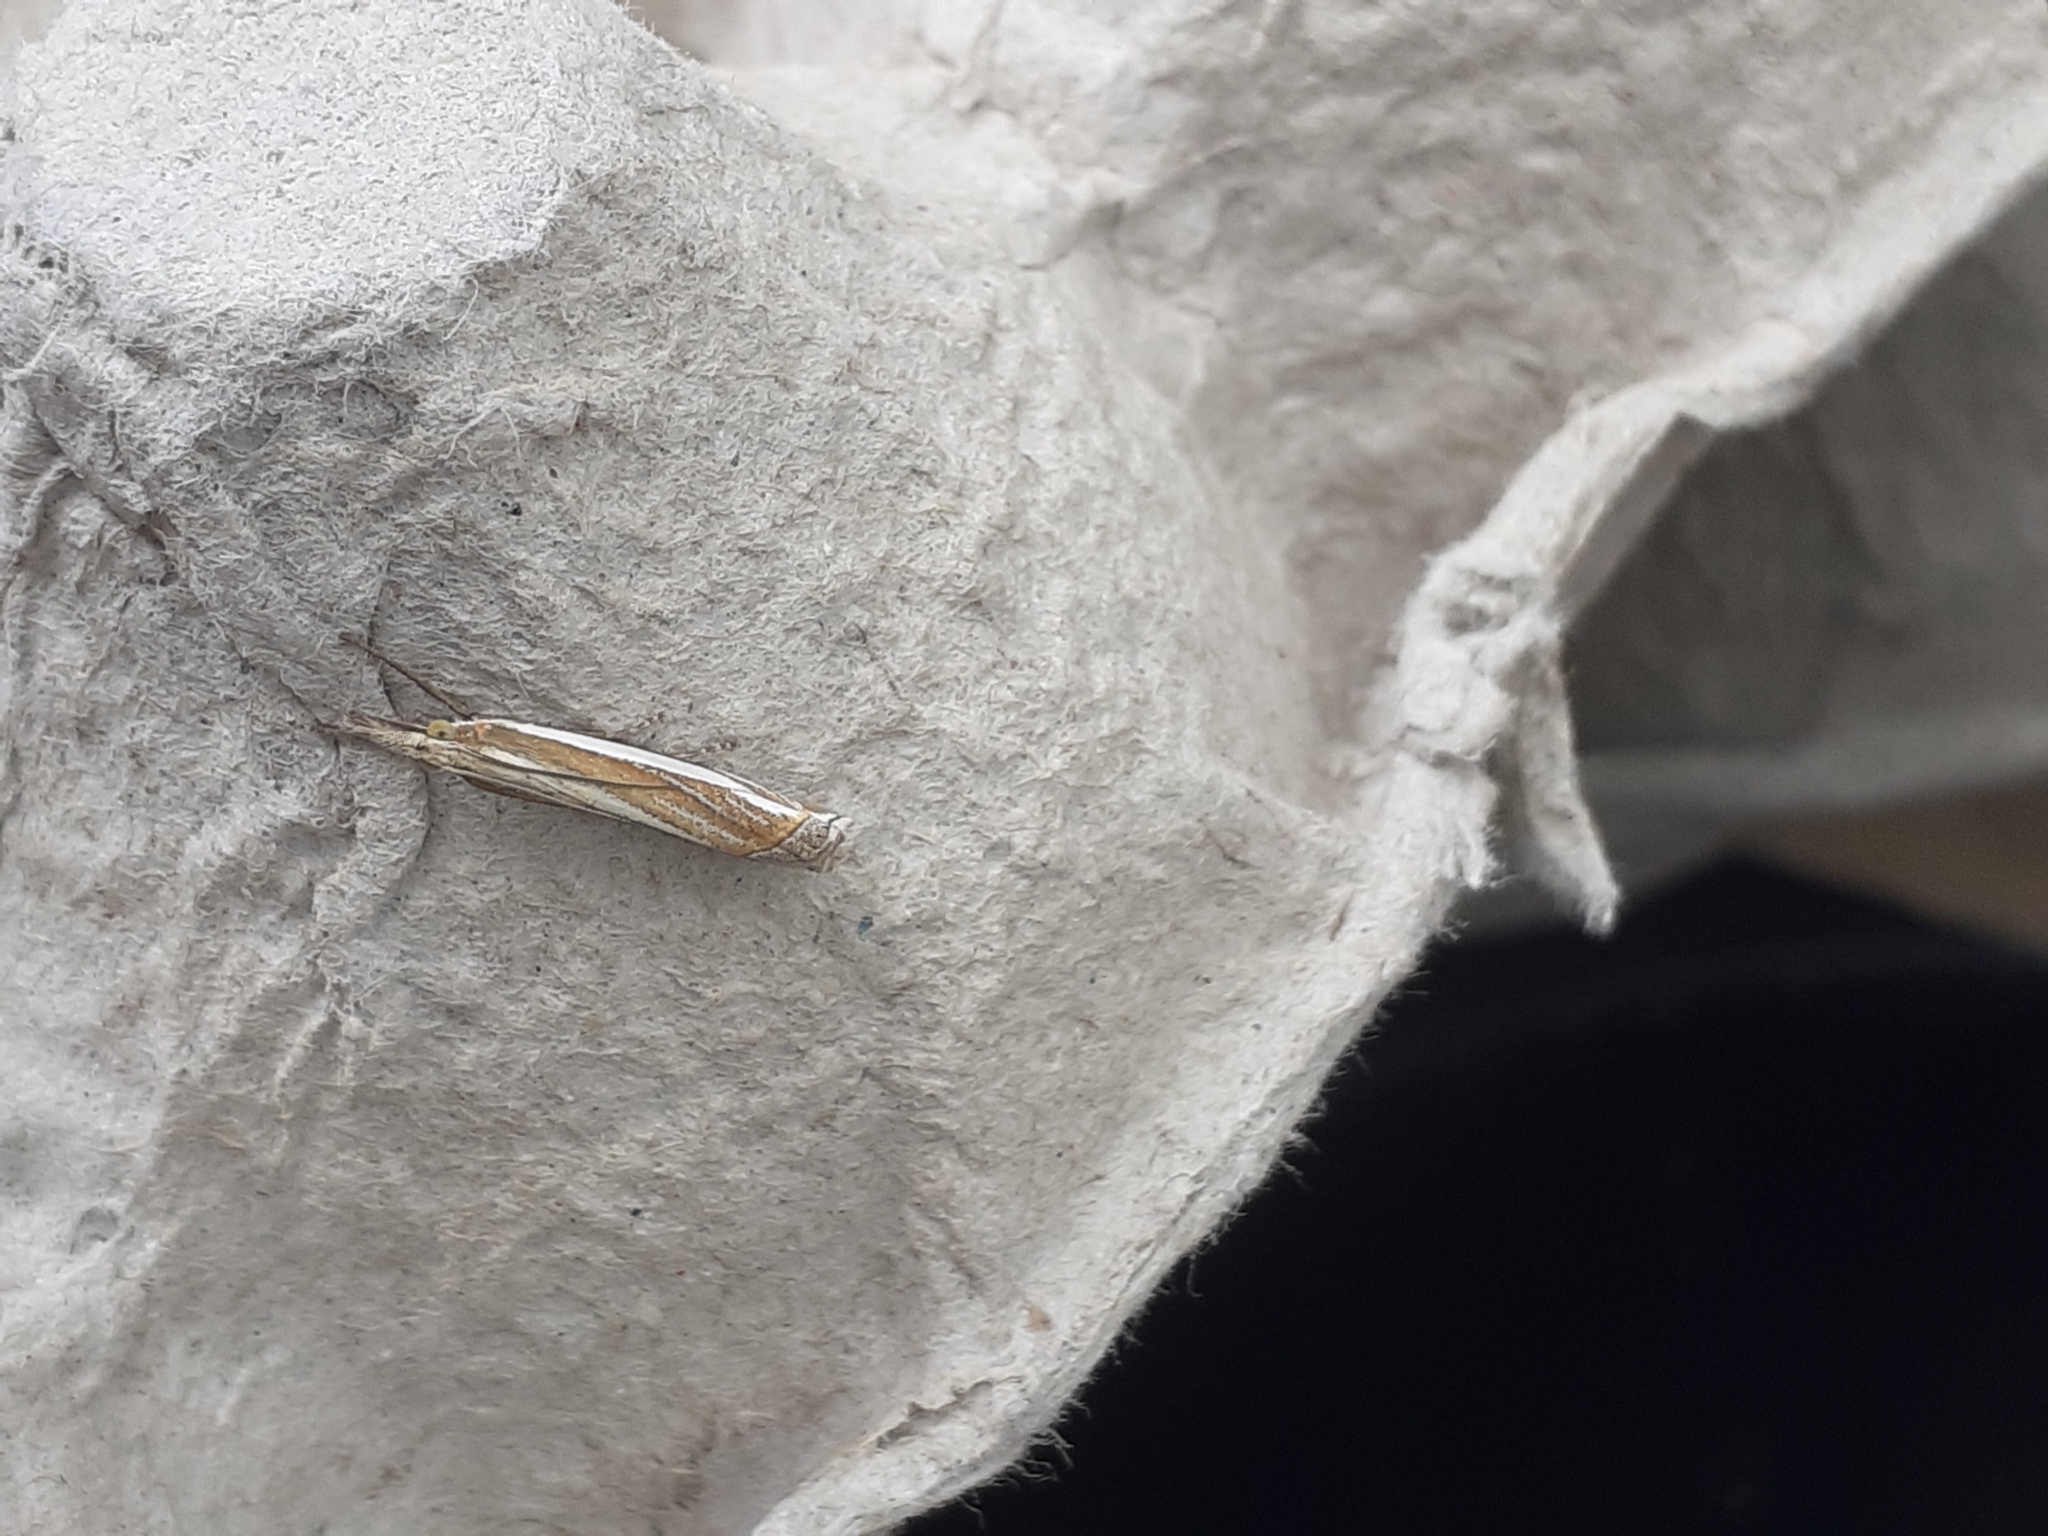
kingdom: Animalia
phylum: Arthropoda
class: Insecta
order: Lepidoptera
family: Crambidae
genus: Crambus
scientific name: Crambus pascuella
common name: Inlaid grass-veneer
